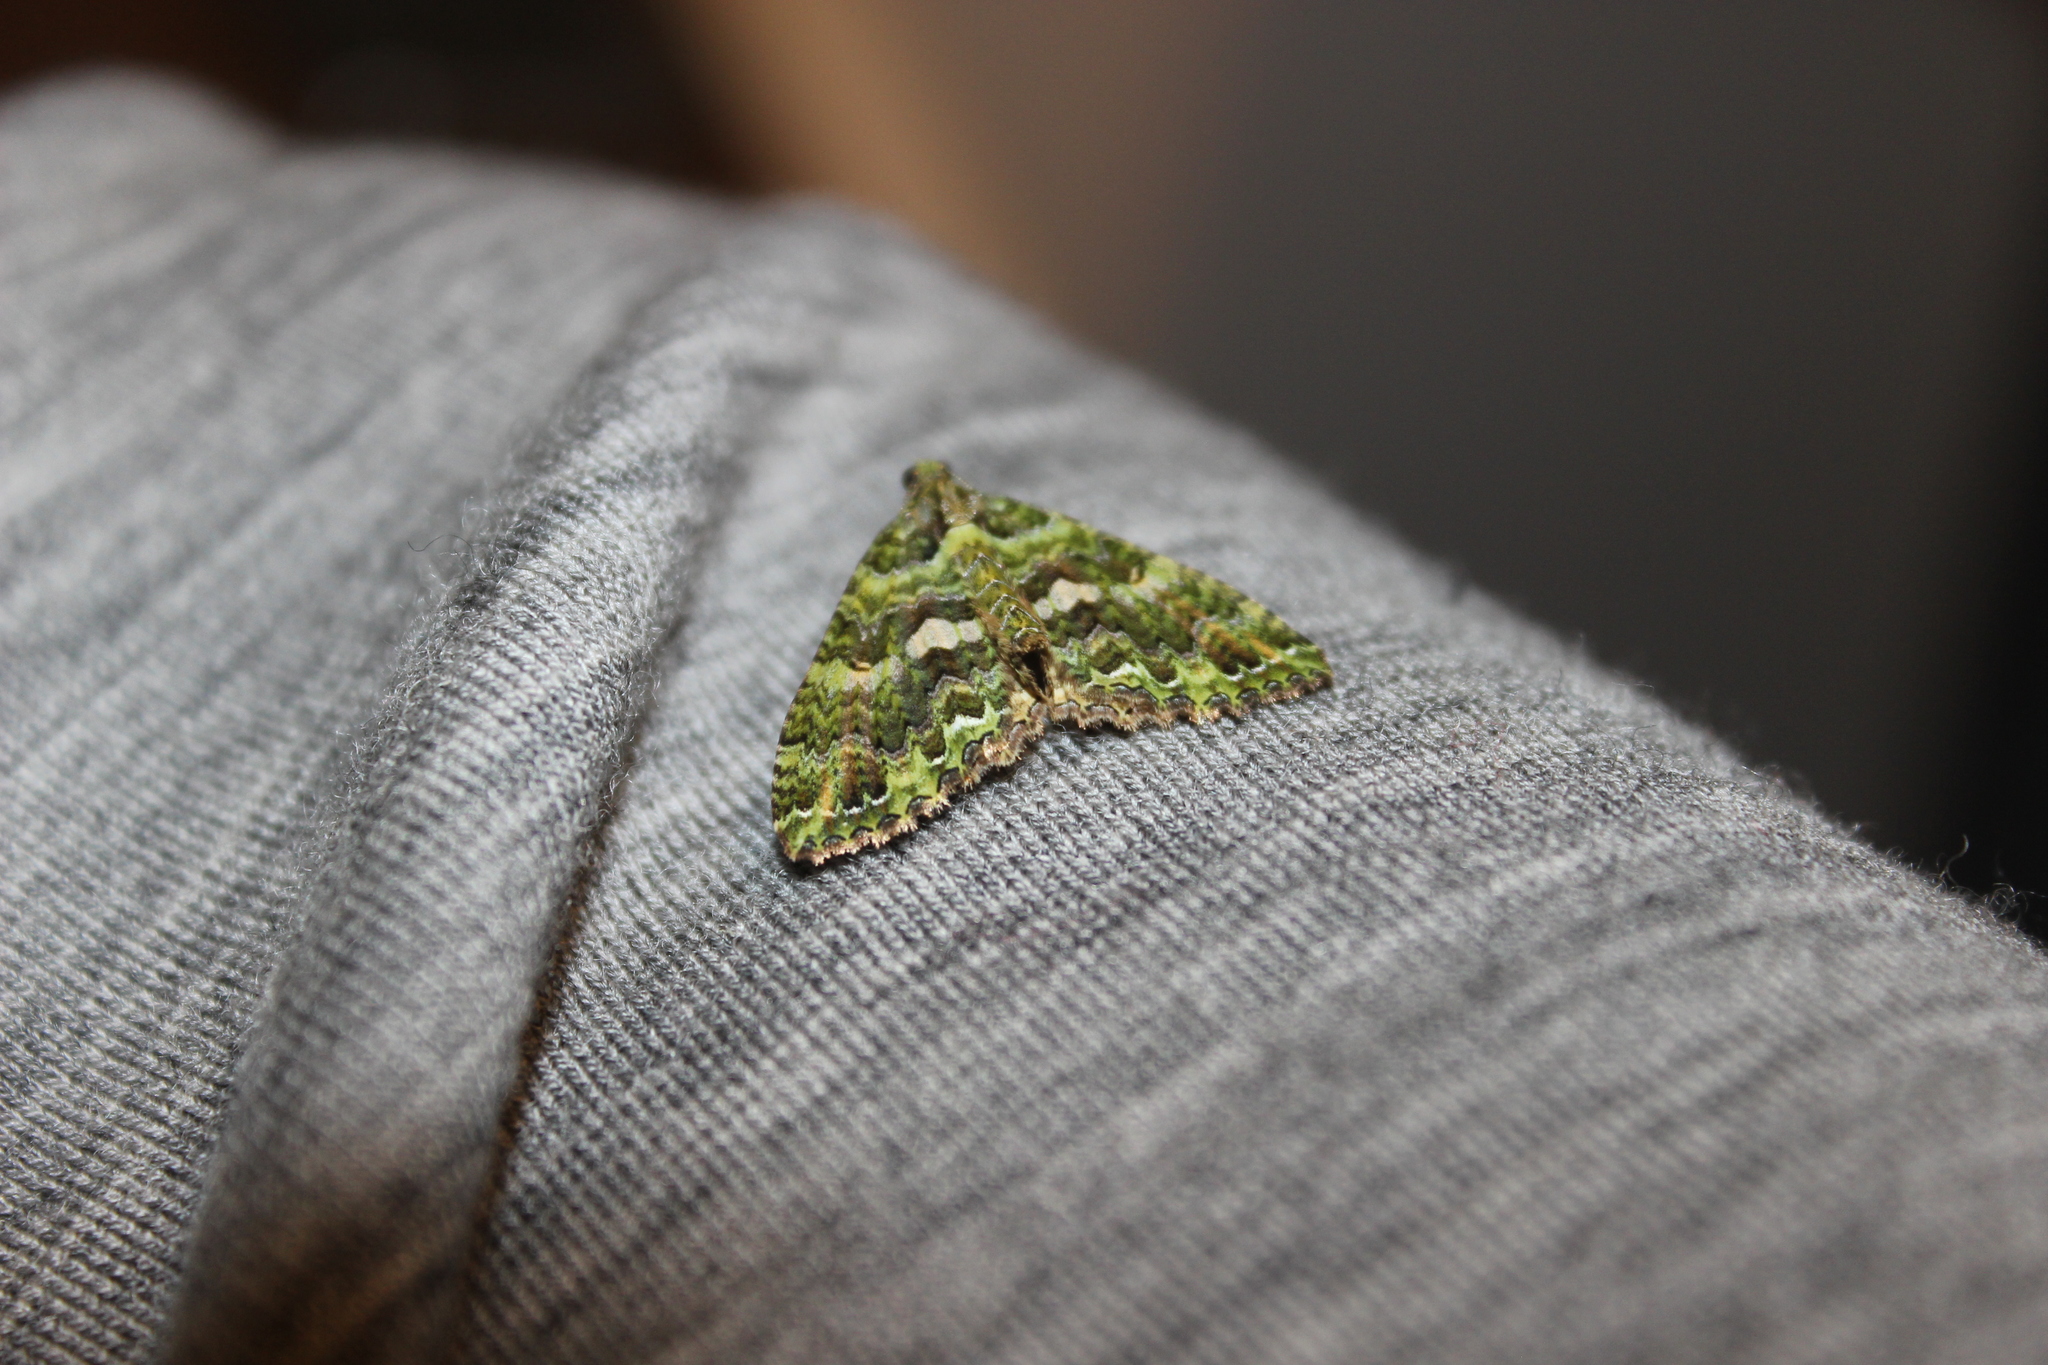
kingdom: Animalia
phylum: Arthropoda
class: Insecta
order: Lepidoptera
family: Geometridae
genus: Austrocidaria
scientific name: Austrocidaria similata
